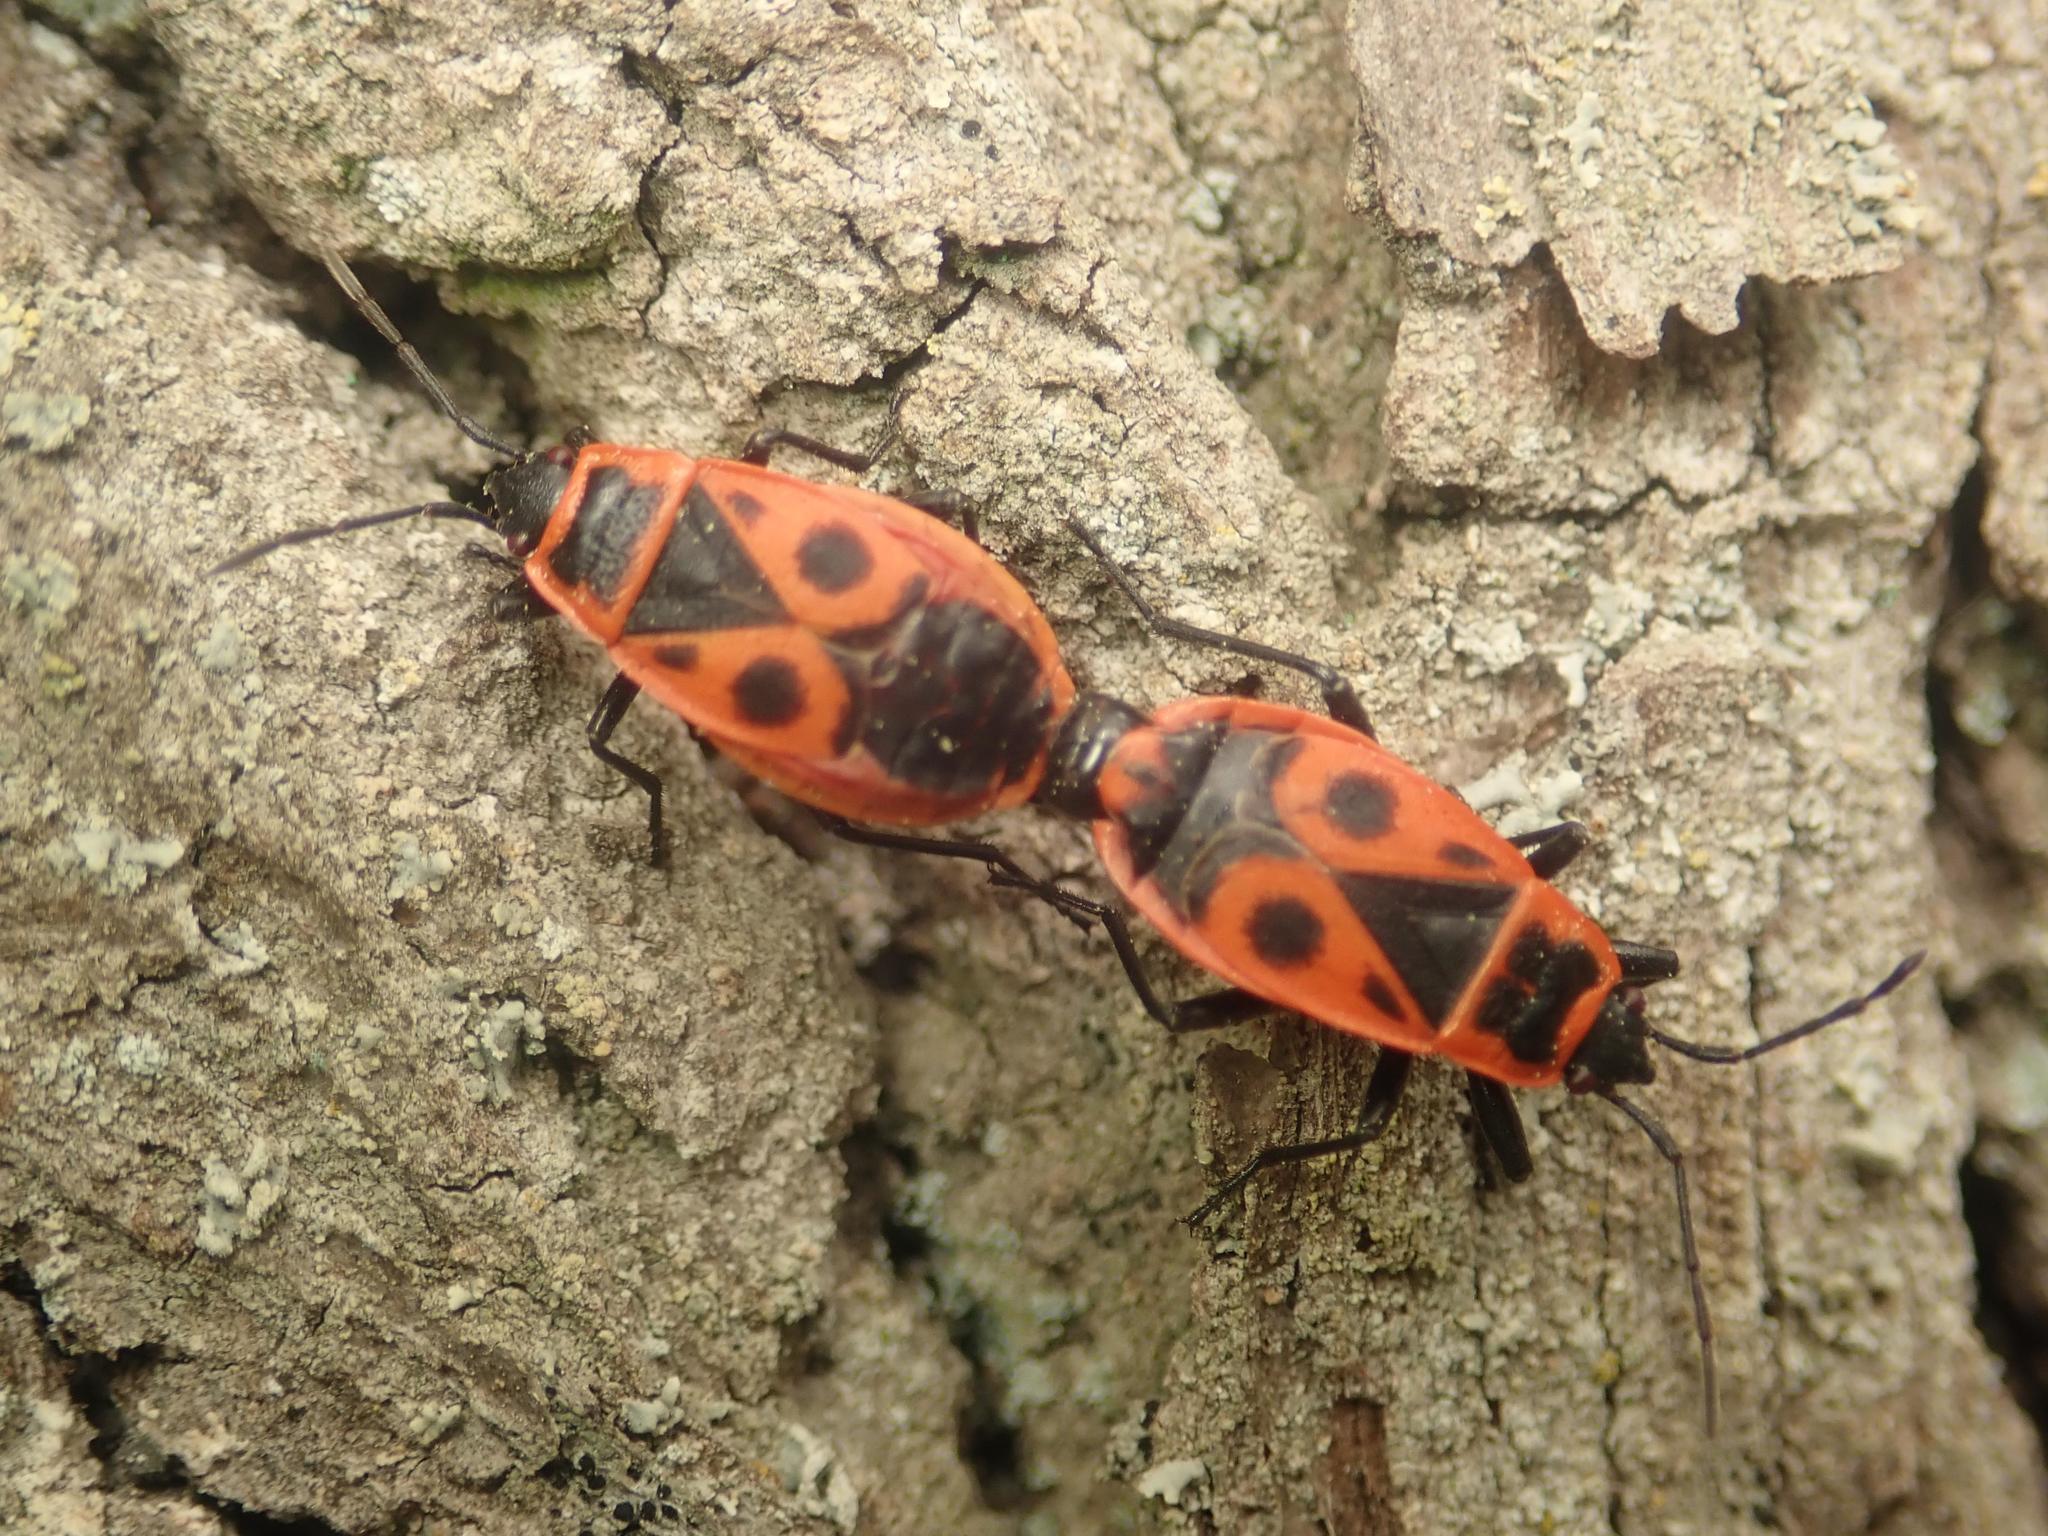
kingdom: Animalia
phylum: Arthropoda
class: Insecta
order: Hemiptera
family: Pyrrhocoridae
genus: Pyrrhocoris
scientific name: Pyrrhocoris apterus
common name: Firebug
